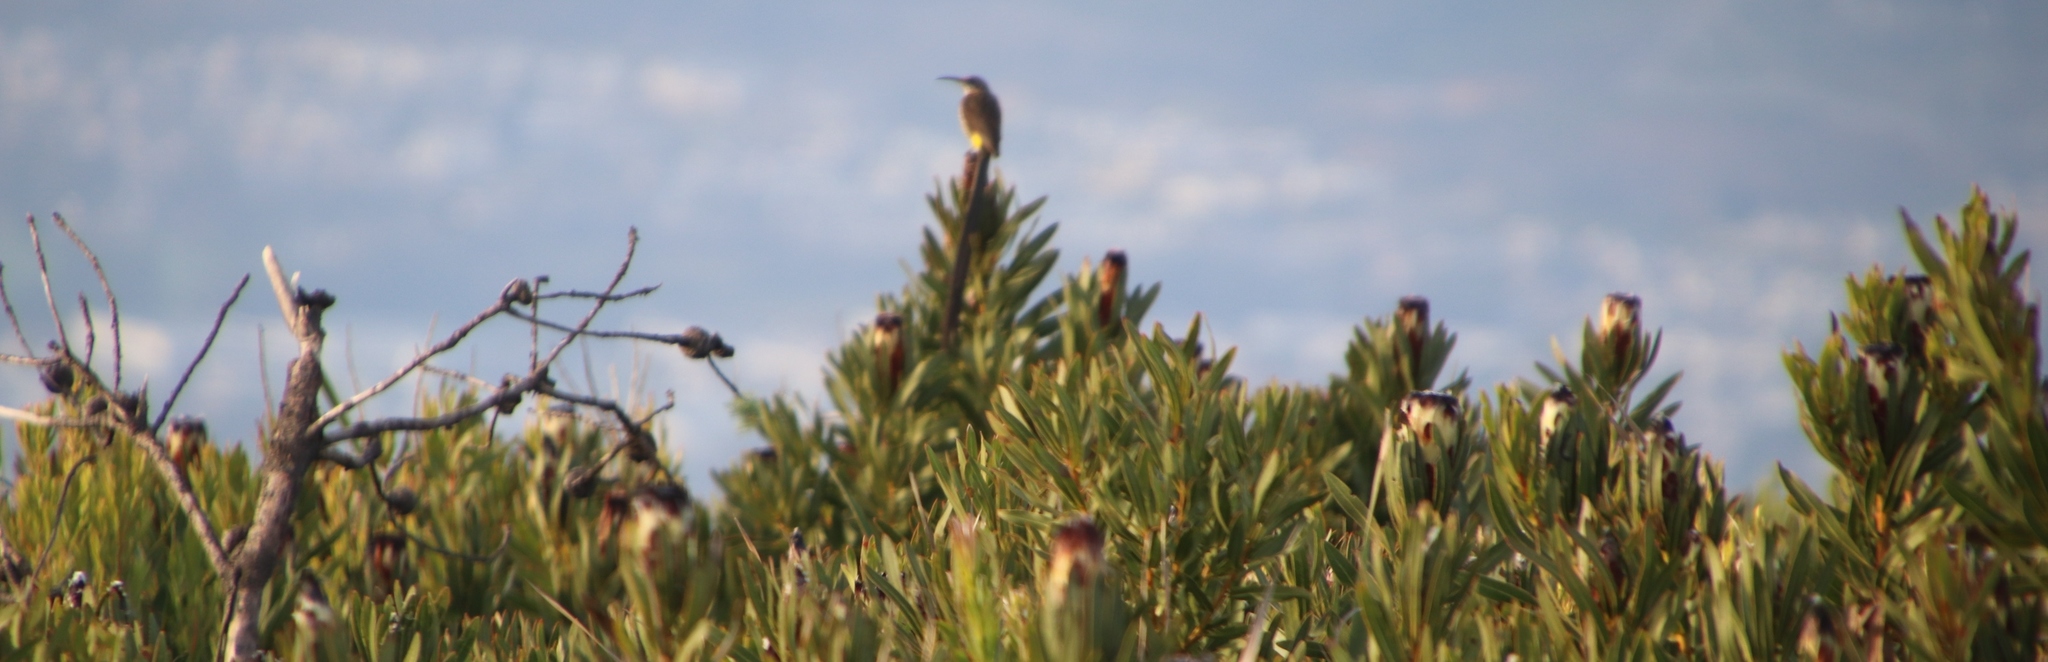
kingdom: Animalia
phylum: Chordata
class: Aves
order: Passeriformes
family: Promeropidae
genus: Promerops
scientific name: Promerops cafer
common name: Cape sugarbird
